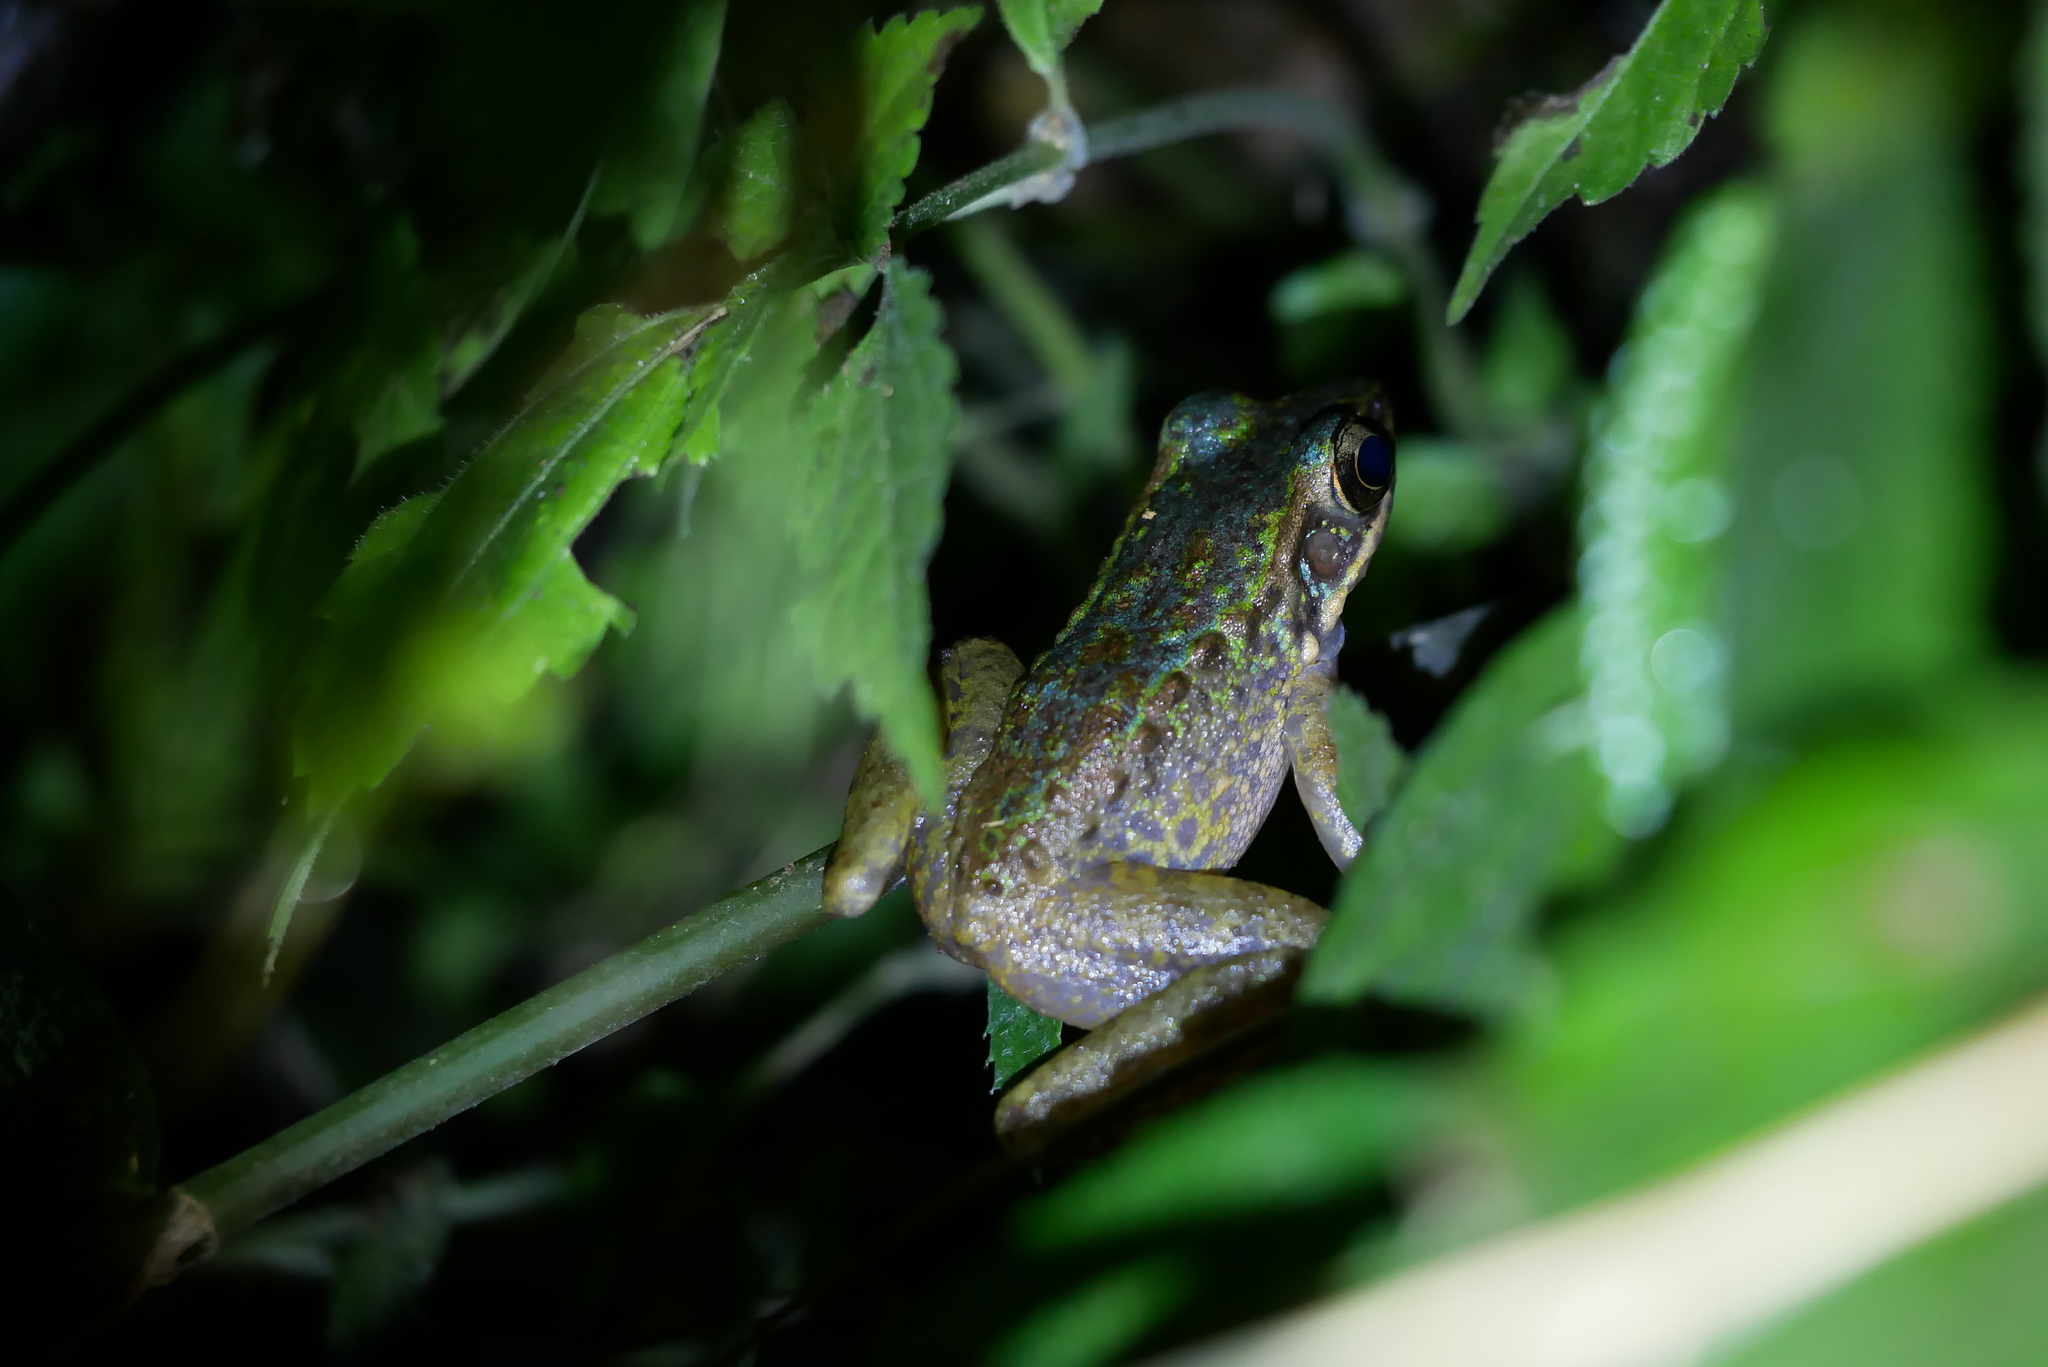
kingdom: Animalia
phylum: Chordata
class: Amphibia
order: Anura
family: Ranidae
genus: Odorrana
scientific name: Odorrana swinhoana
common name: Bangkimtsing frog
